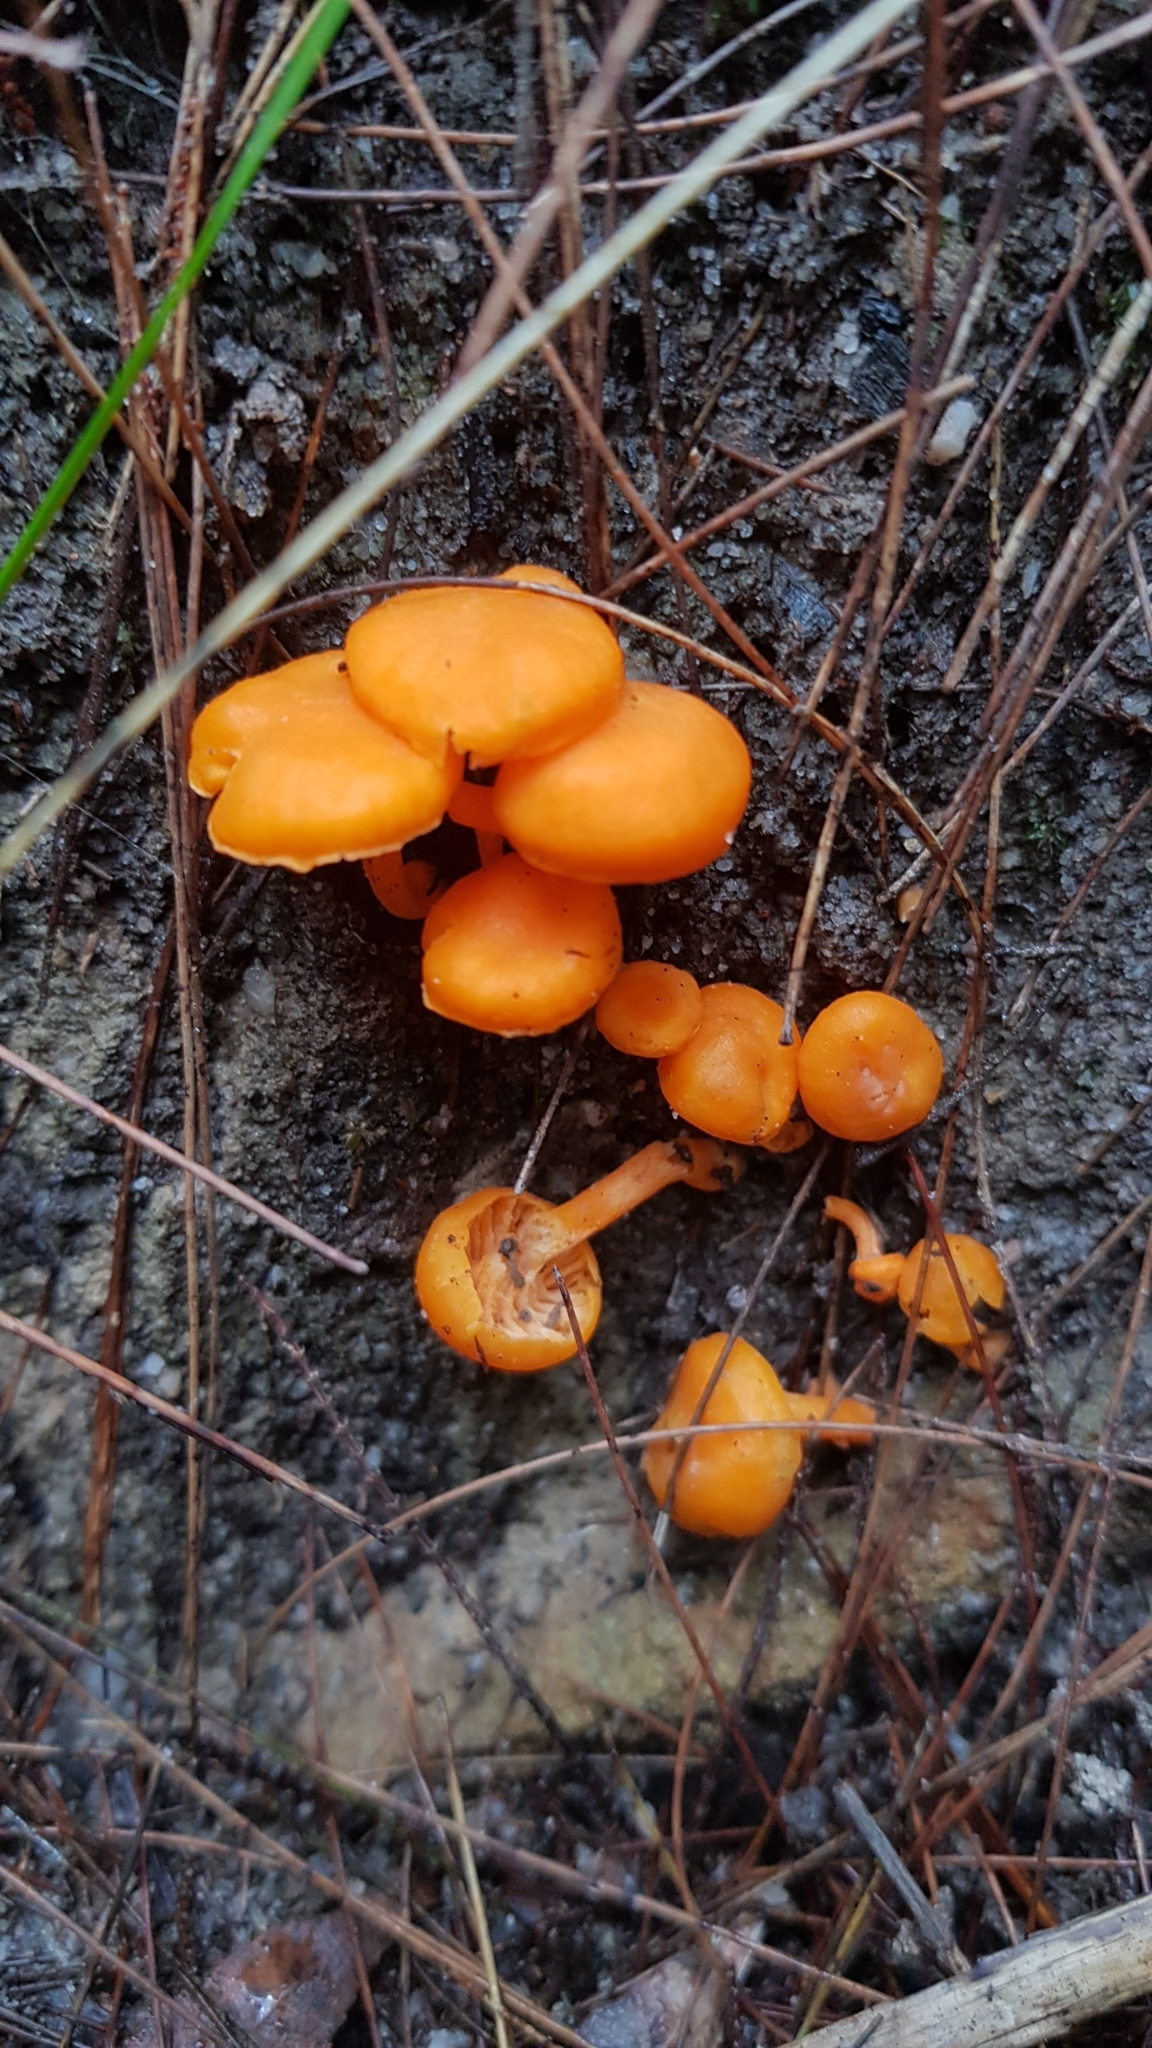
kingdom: Fungi
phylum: Basidiomycota
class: Agaricomycetes
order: Cantharellales
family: Hydnaceae
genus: Cantharellus
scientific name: Cantharellus
